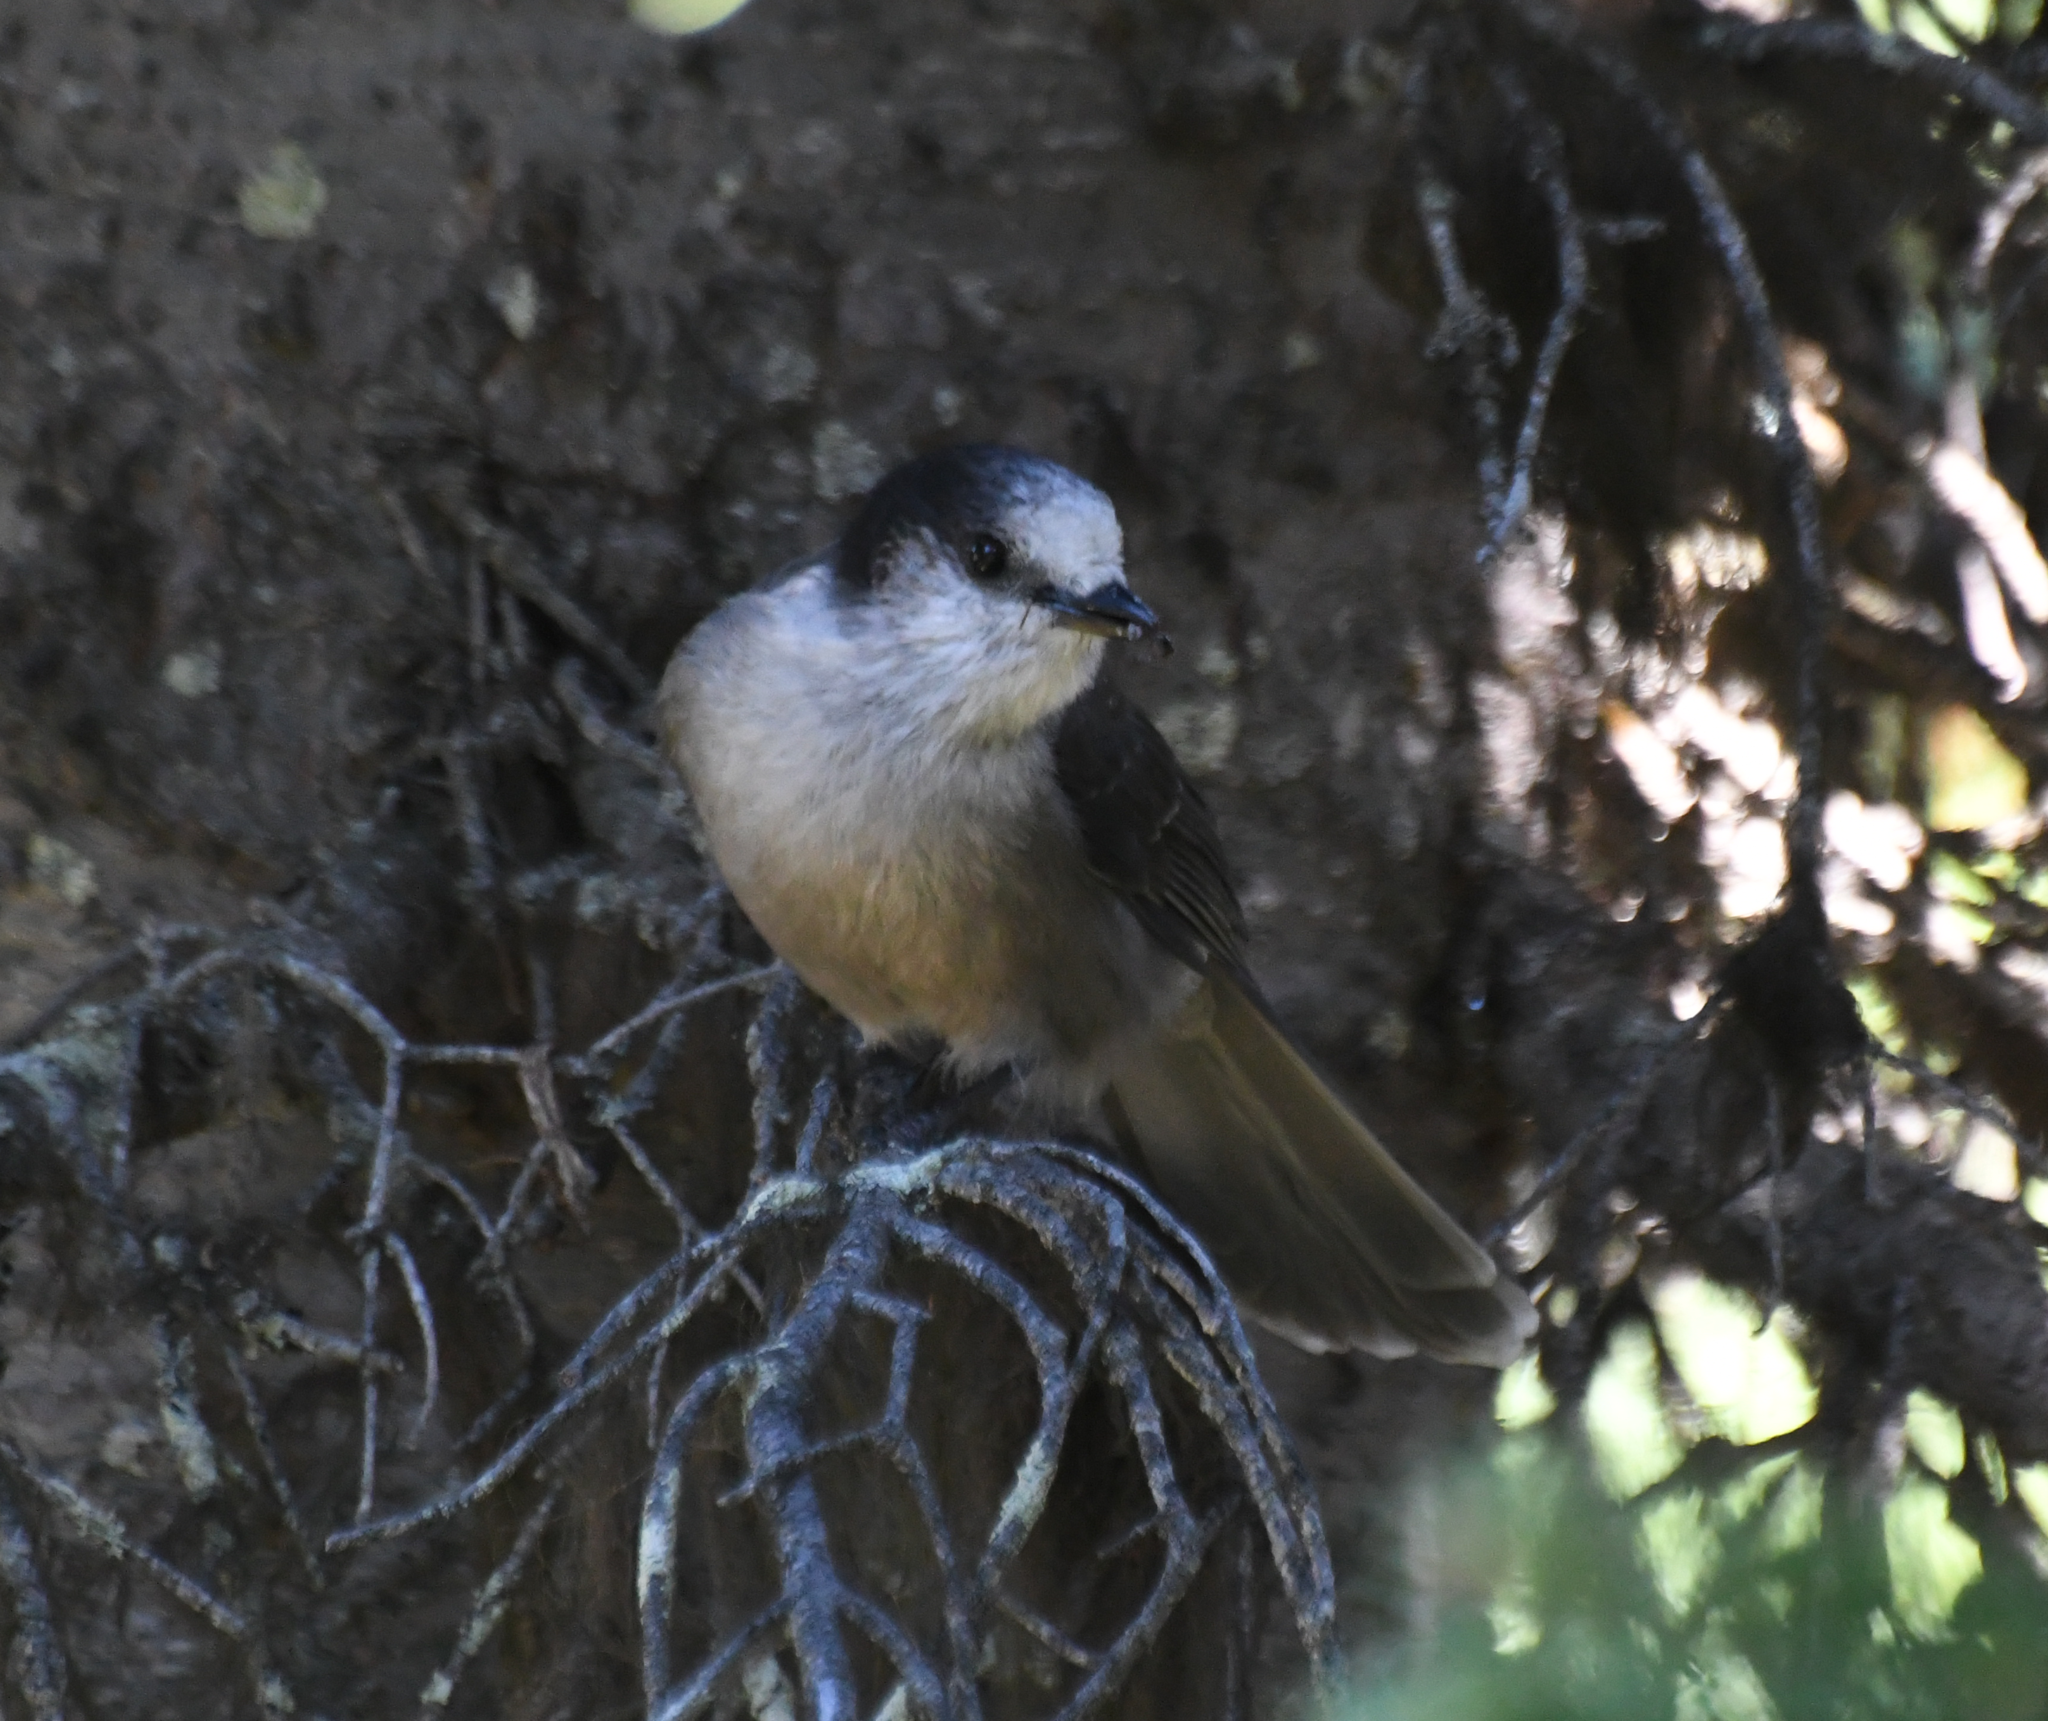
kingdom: Animalia
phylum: Chordata
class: Aves
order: Passeriformes
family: Corvidae
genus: Perisoreus
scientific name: Perisoreus canadensis
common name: Gray jay
